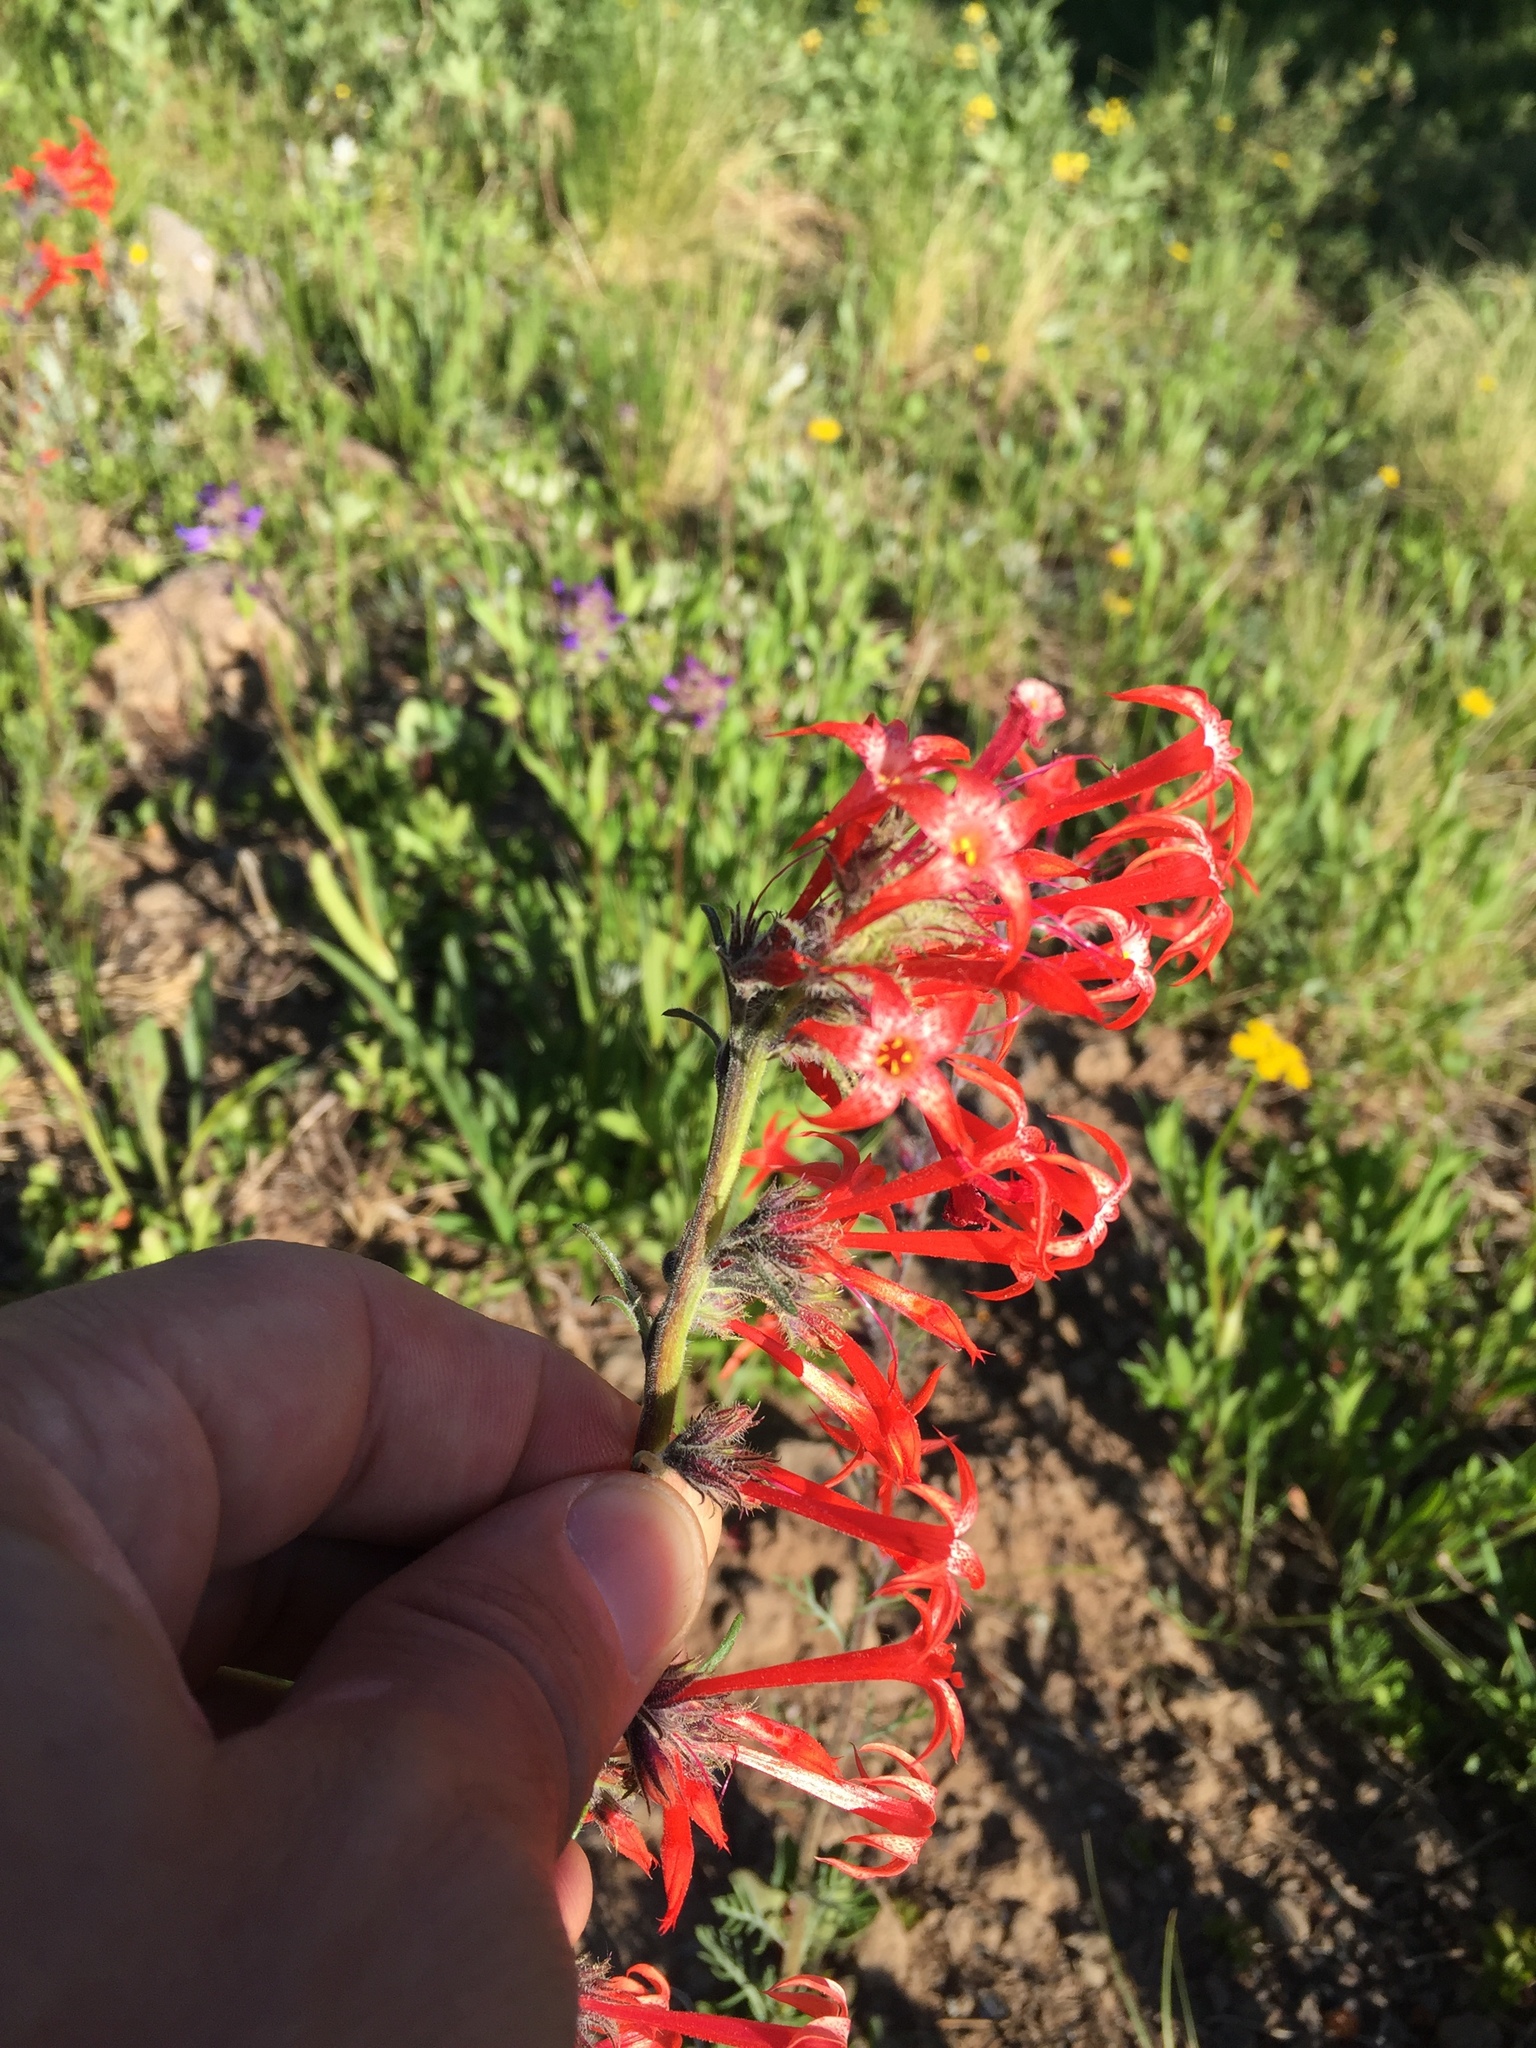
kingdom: Plantae
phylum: Tracheophyta
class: Magnoliopsida
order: Ericales
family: Polemoniaceae
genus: Ipomopsis
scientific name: Ipomopsis aggregata
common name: Scarlet gilia
